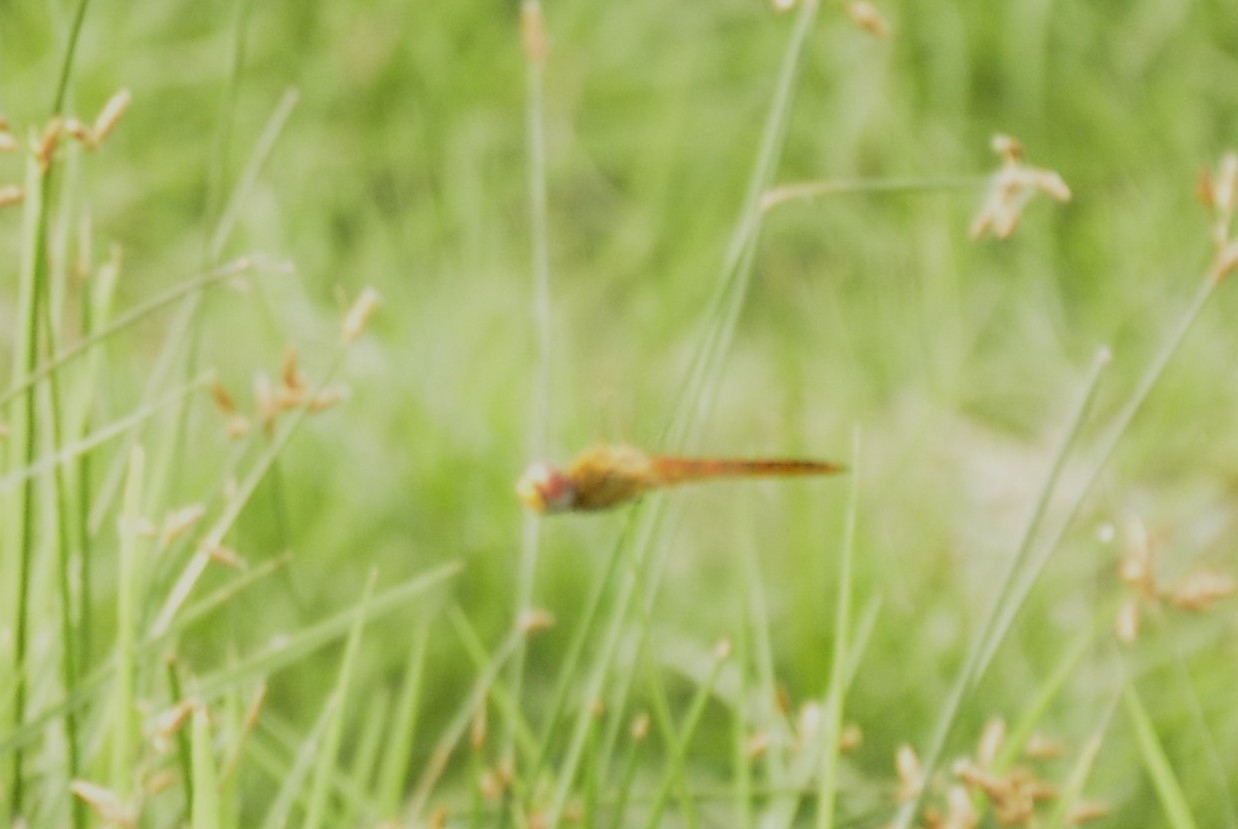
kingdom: Animalia
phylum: Arthropoda
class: Insecta
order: Odonata
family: Libellulidae
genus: Pantala
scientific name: Pantala flavescens
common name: Wandering glider
